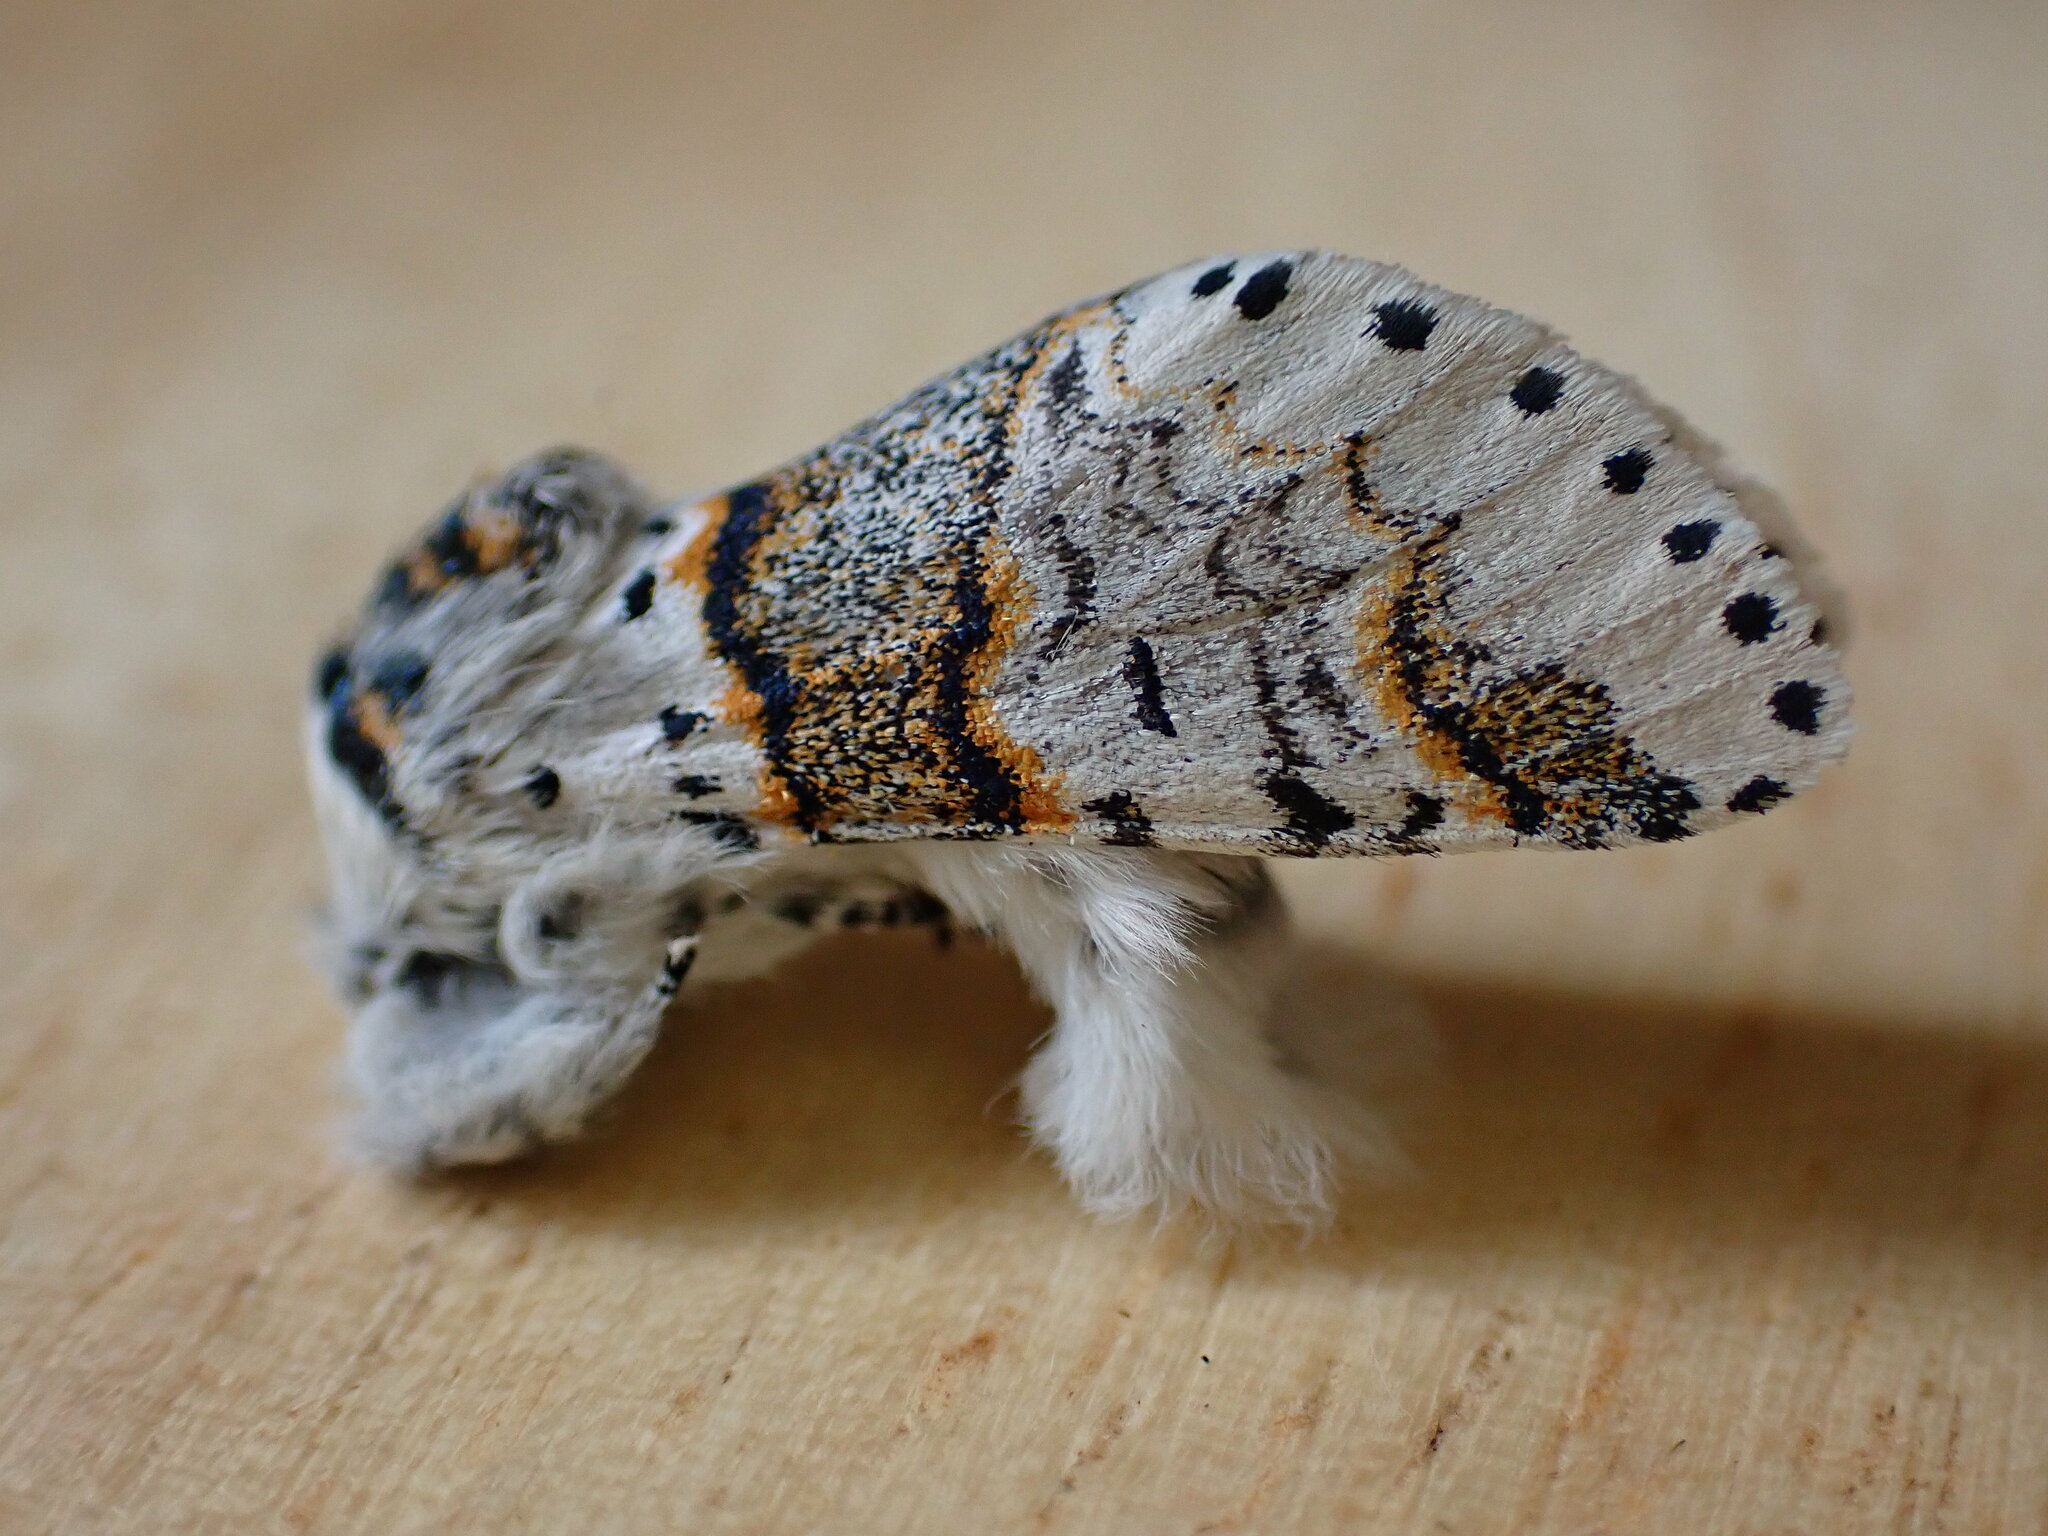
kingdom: Animalia
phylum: Arthropoda
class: Insecta
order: Lepidoptera
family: Notodontidae
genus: Furcula
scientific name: Furcula furcula
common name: Sallow kitten
